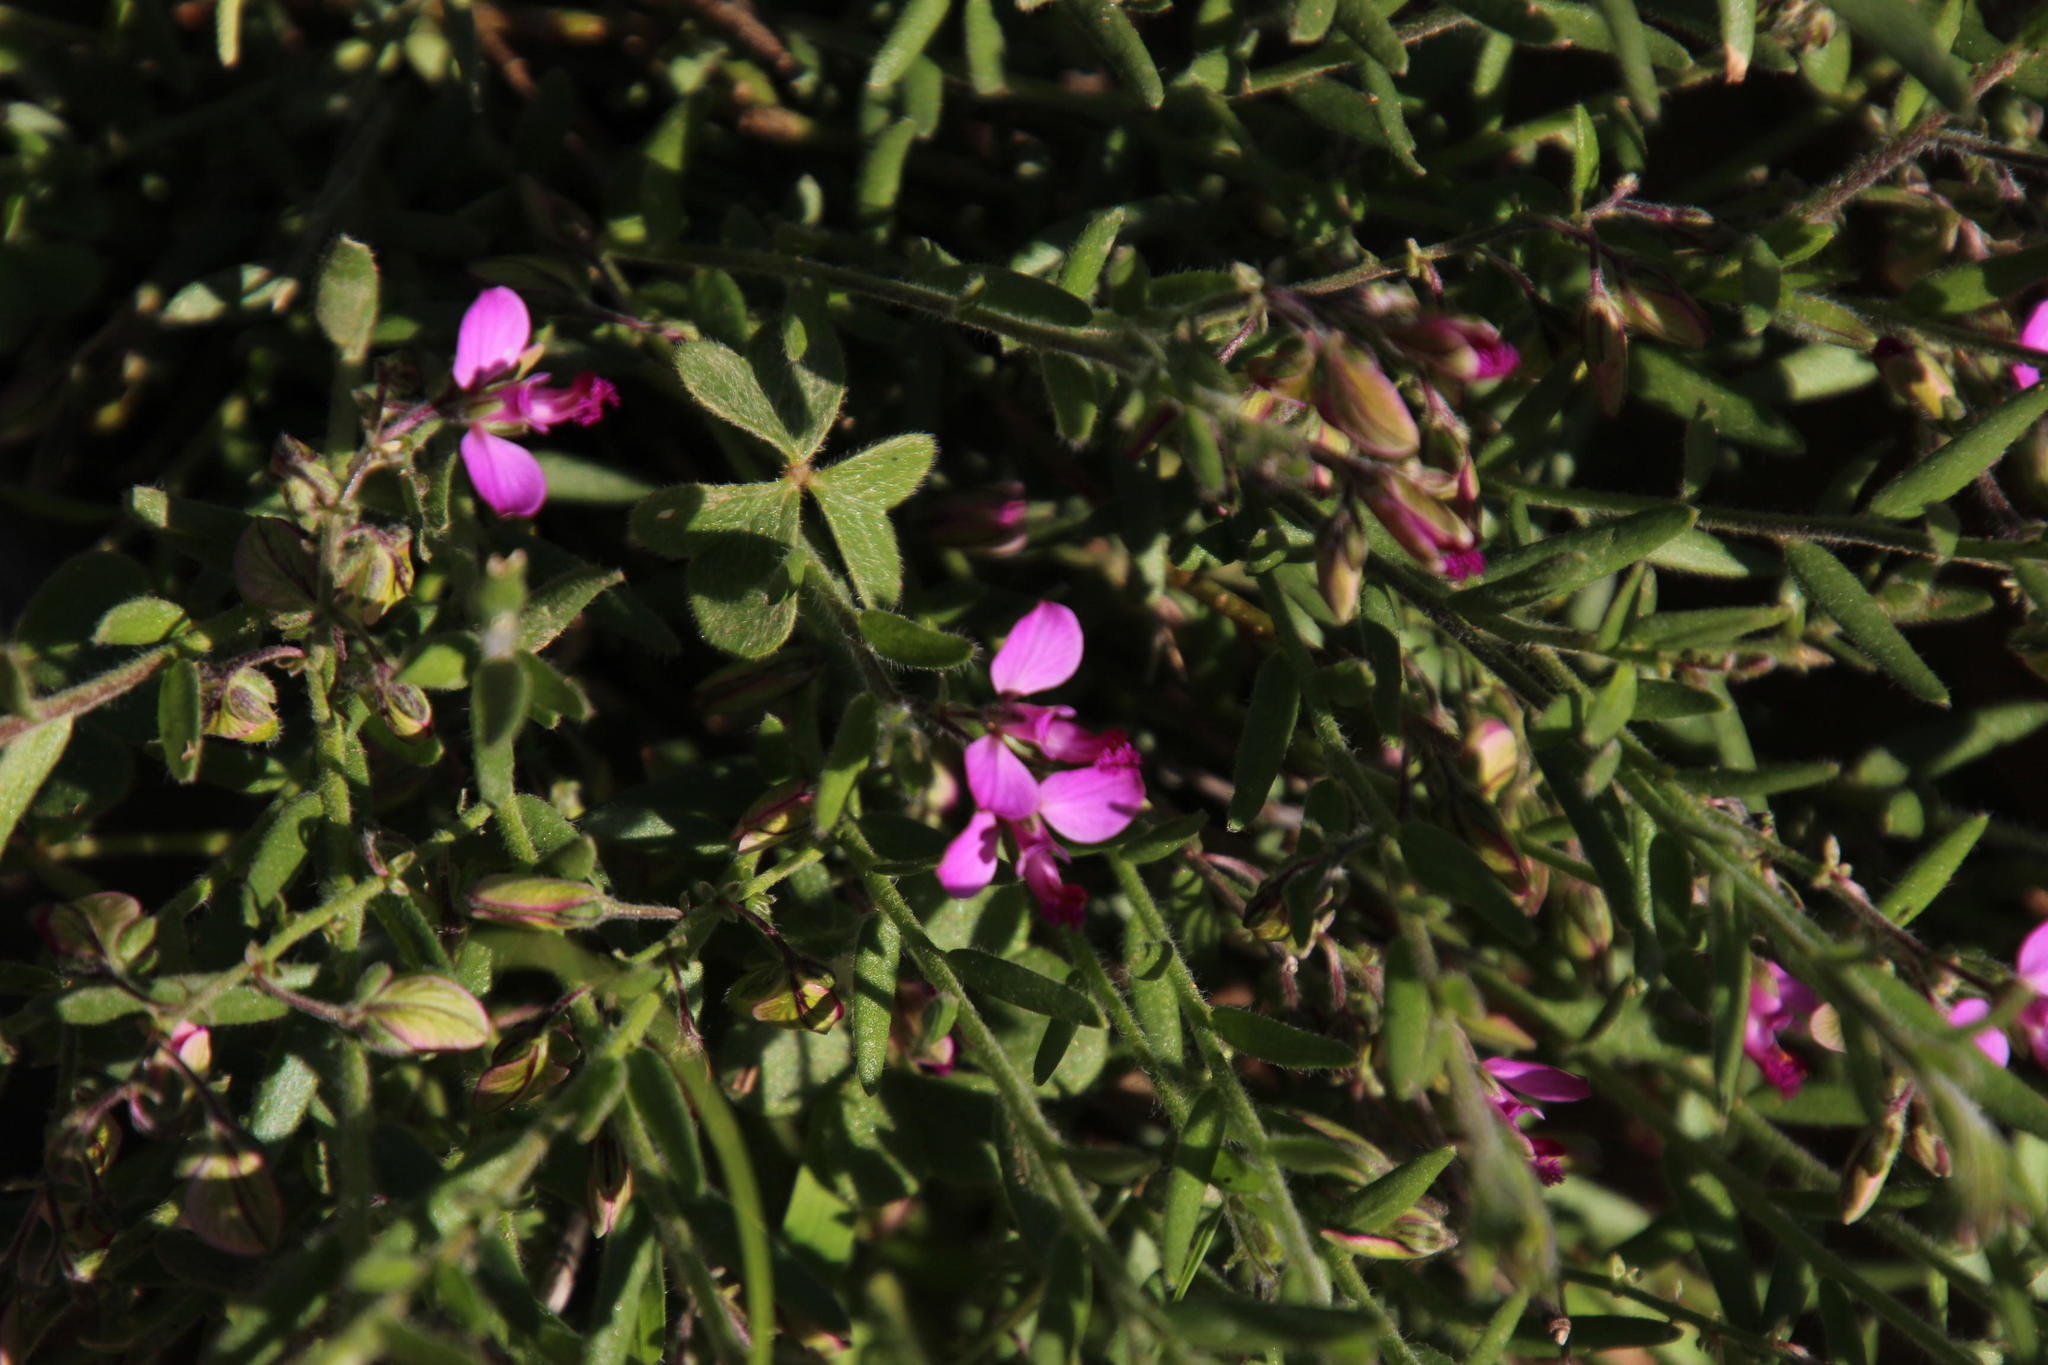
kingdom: Plantae
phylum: Tracheophyta
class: Magnoliopsida
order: Fabales
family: Polygalaceae
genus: Polygala
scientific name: Polygala scabra
